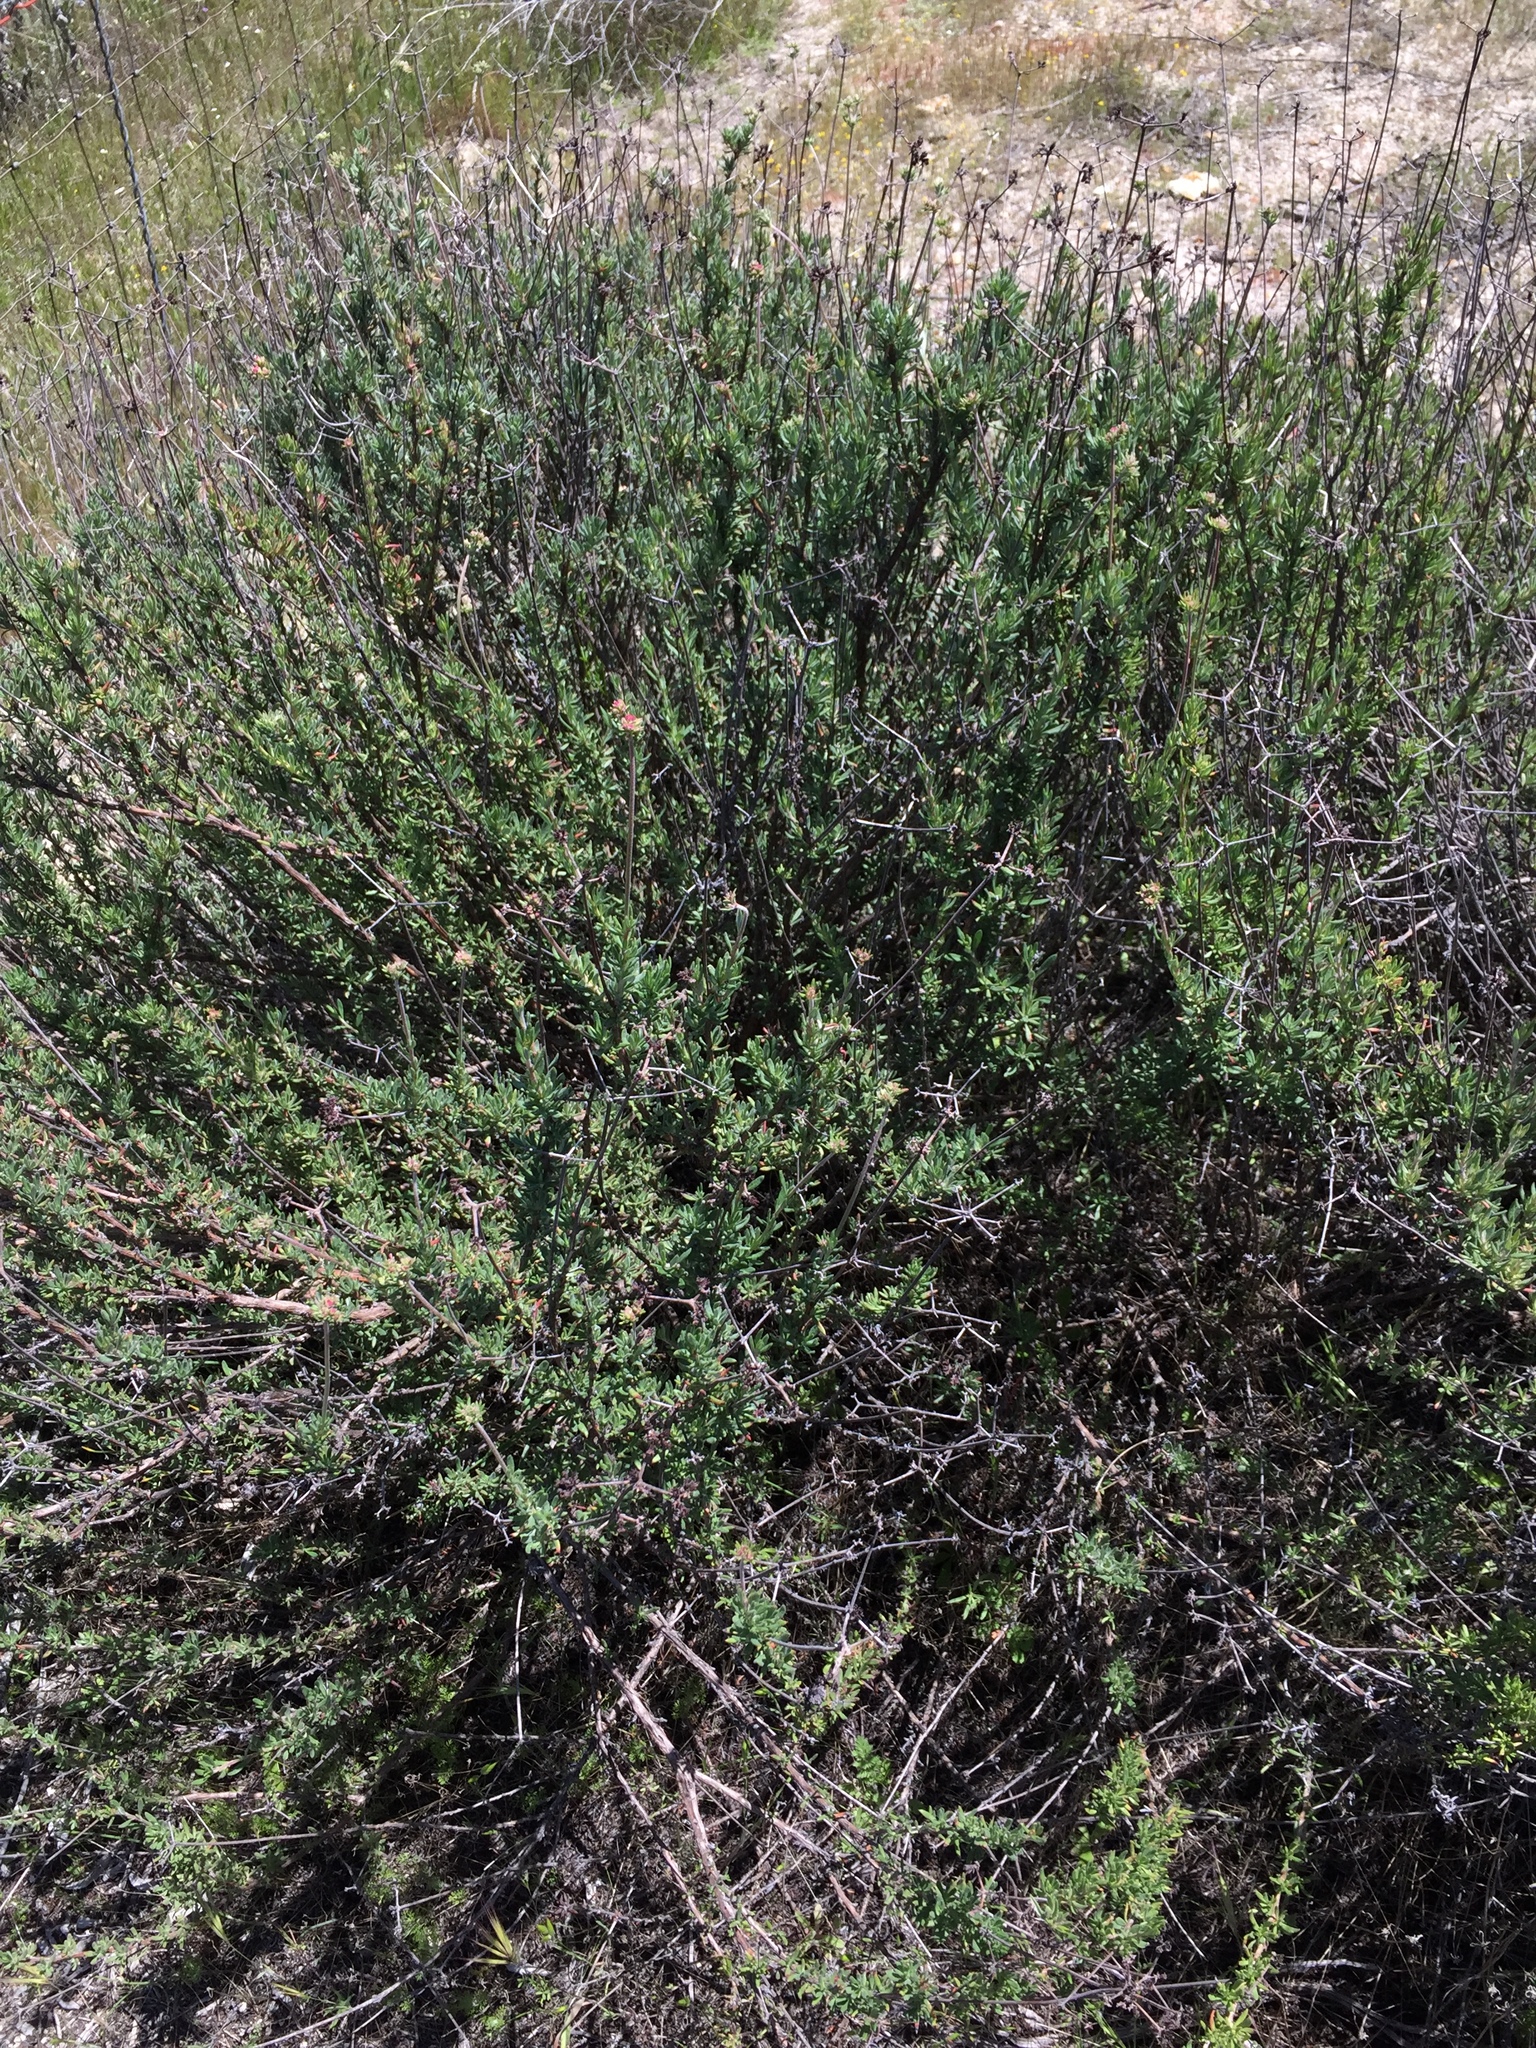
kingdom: Plantae
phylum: Tracheophyta
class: Magnoliopsida
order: Caryophyllales
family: Polygonaceae
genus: Eriogonum
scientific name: Eriogonum fasciculatum
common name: California wild buckwheat
